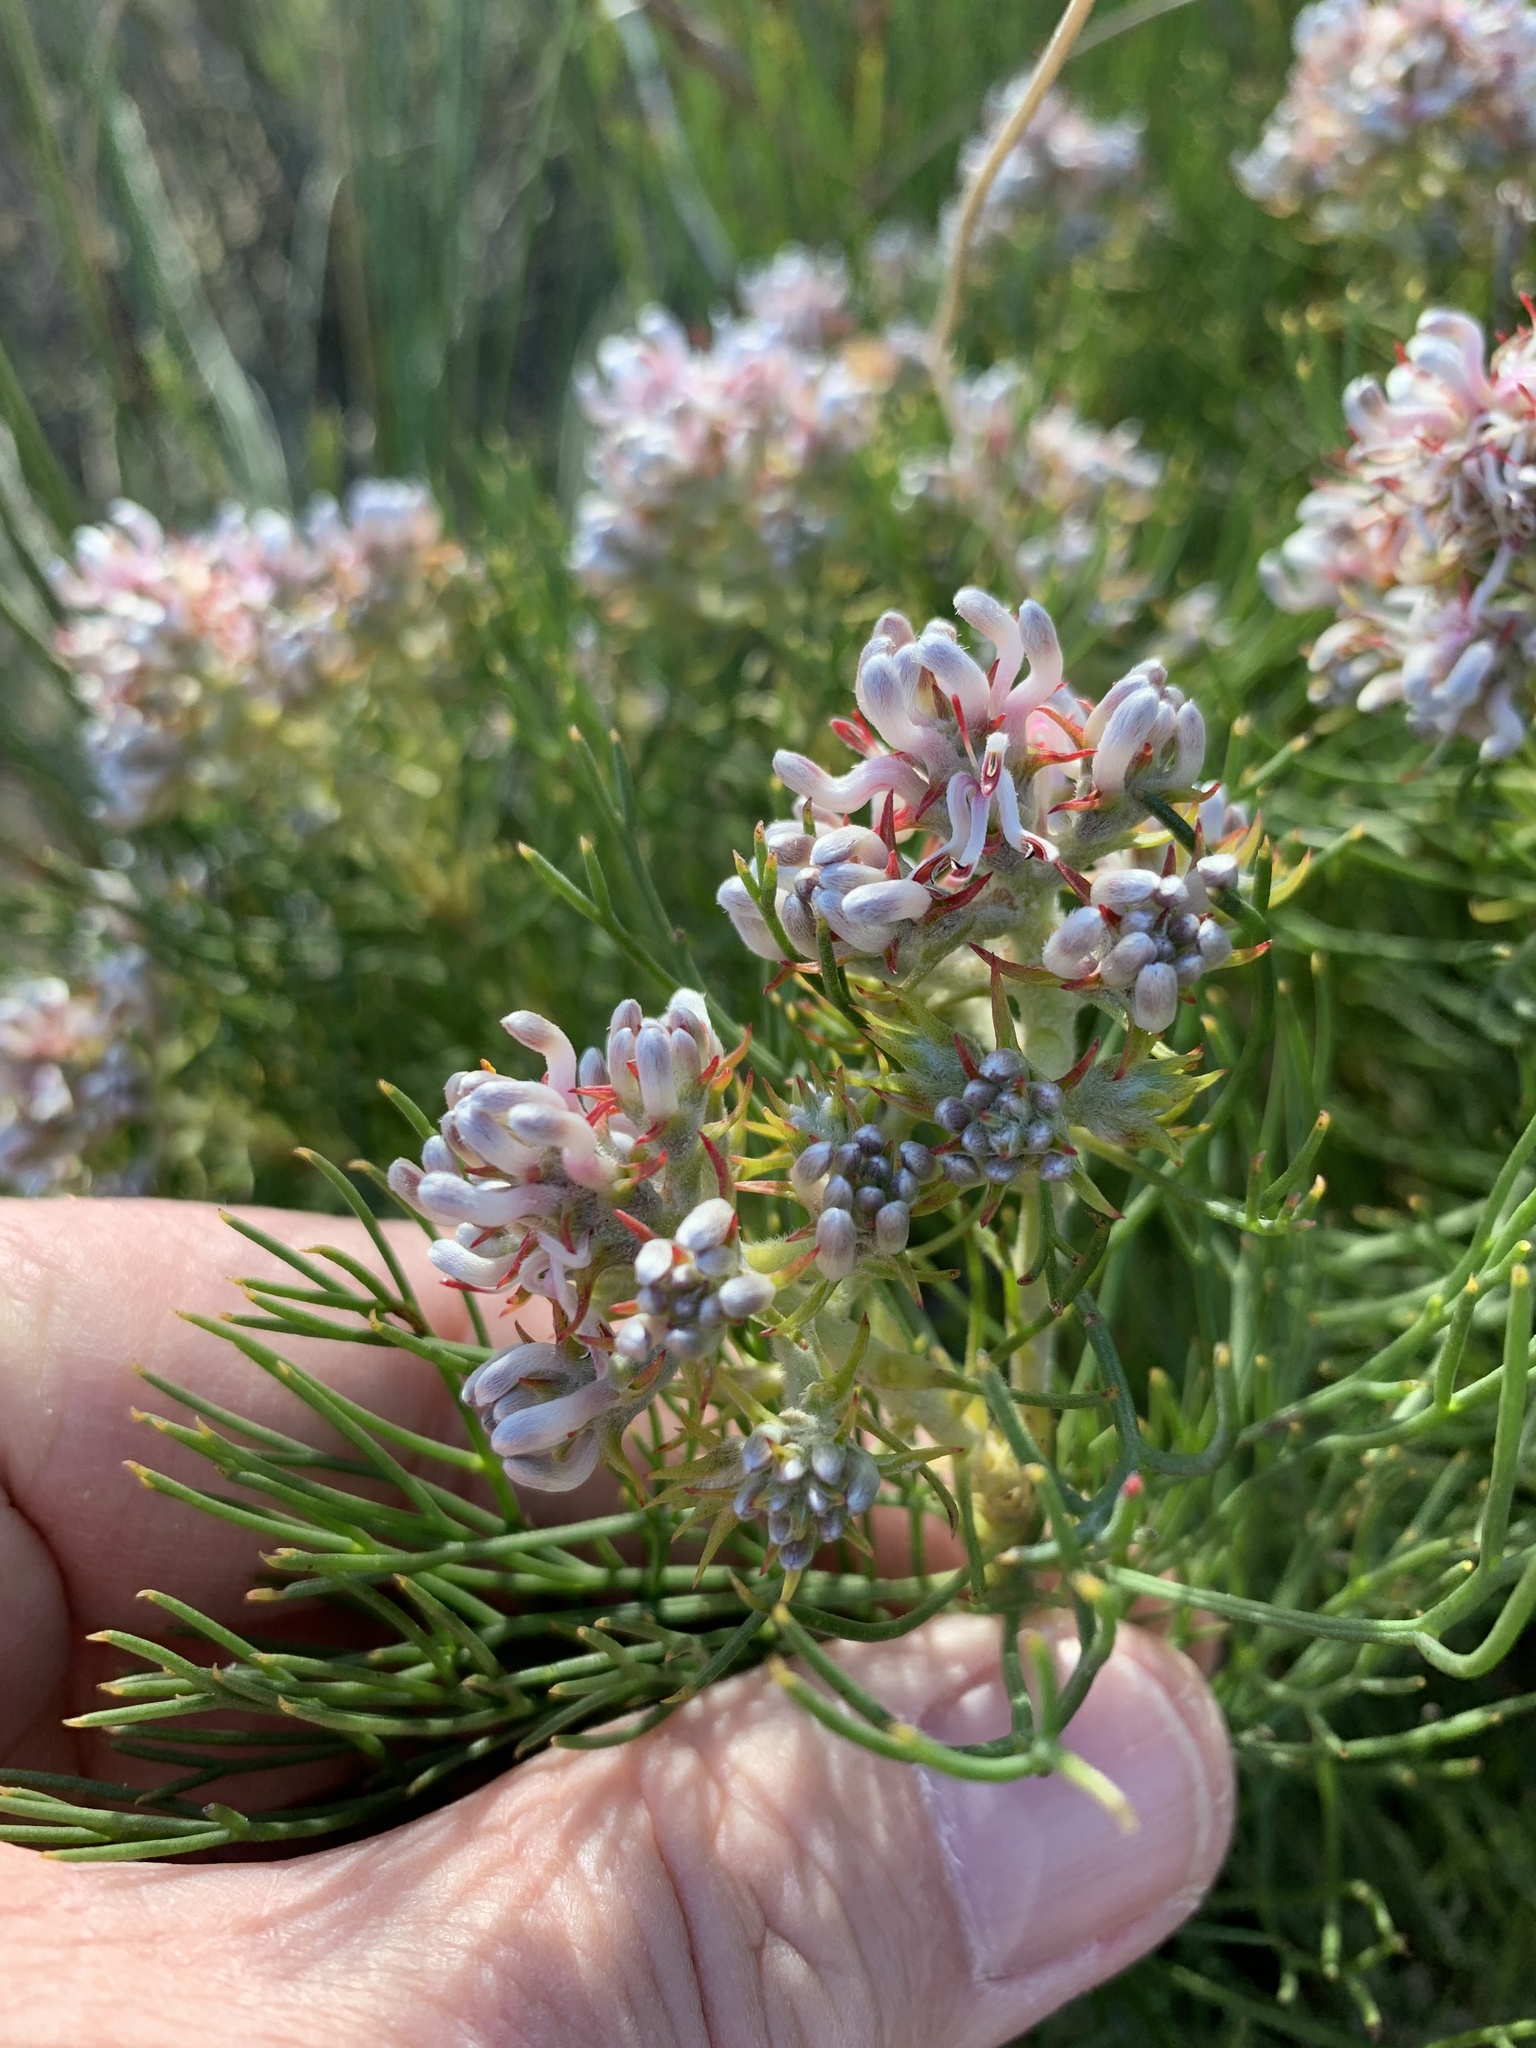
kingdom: Plantae
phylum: Tracheophyta
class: Magnoliopsida
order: Proteales
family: Proteaceae
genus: Serruria
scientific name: Serruria ascendens
